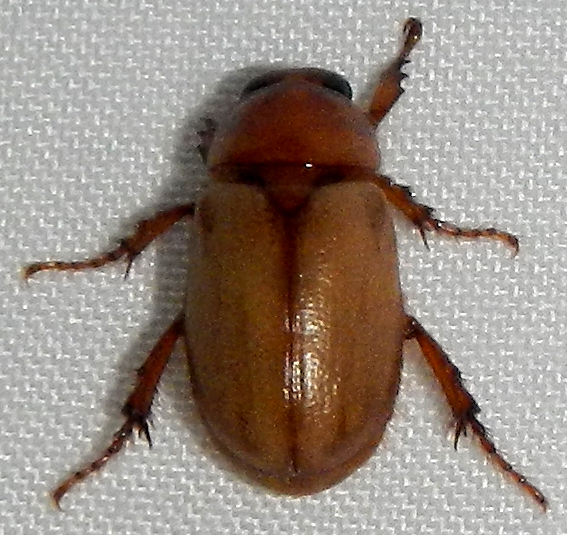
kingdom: Animalia
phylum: Arthropoda
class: Insecta
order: Coleoptera
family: Scarabaeidae
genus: Cyclocephala
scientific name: Cyclocephala hirta
